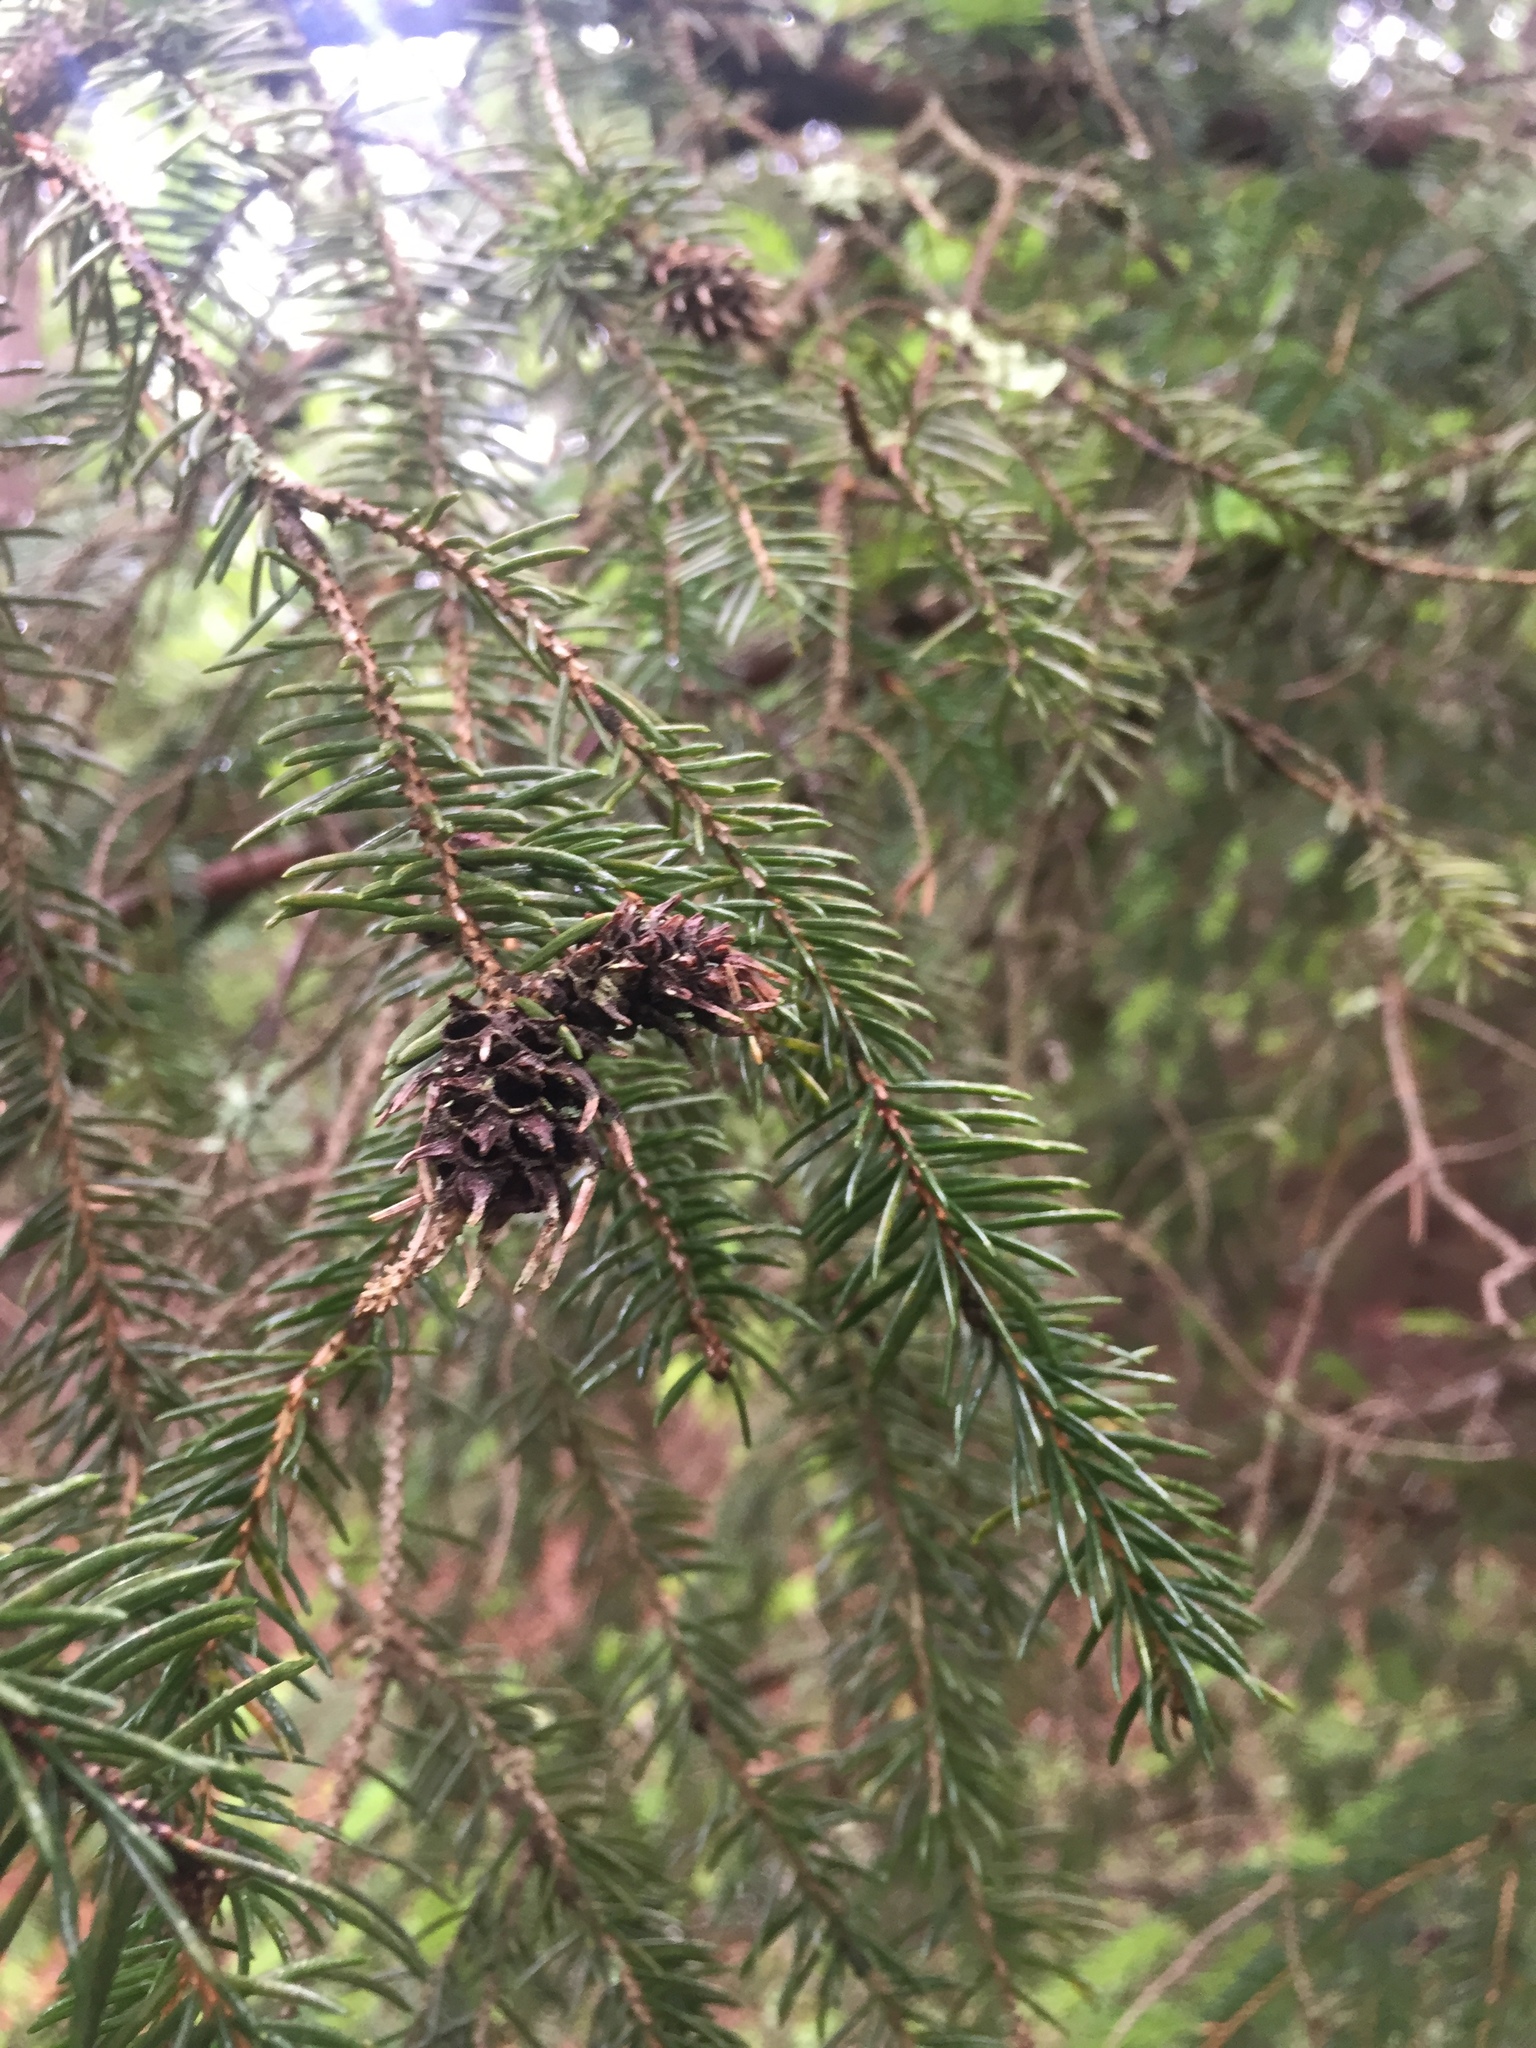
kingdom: Plantae
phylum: Tracheophyta
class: Pinopsida
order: Pinales
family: Pinaceae
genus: Picea
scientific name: Picea abies
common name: Norway spruce
